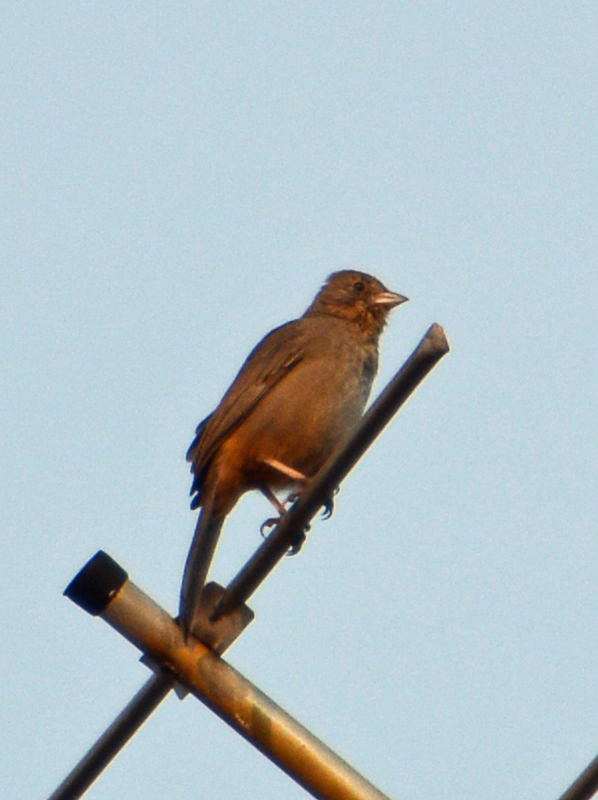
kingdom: Animalia
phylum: Chordata
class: Aves
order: Passeriformes
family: Passerellidae
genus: Melozone
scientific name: Melozone fusca
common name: Canyon towhee
